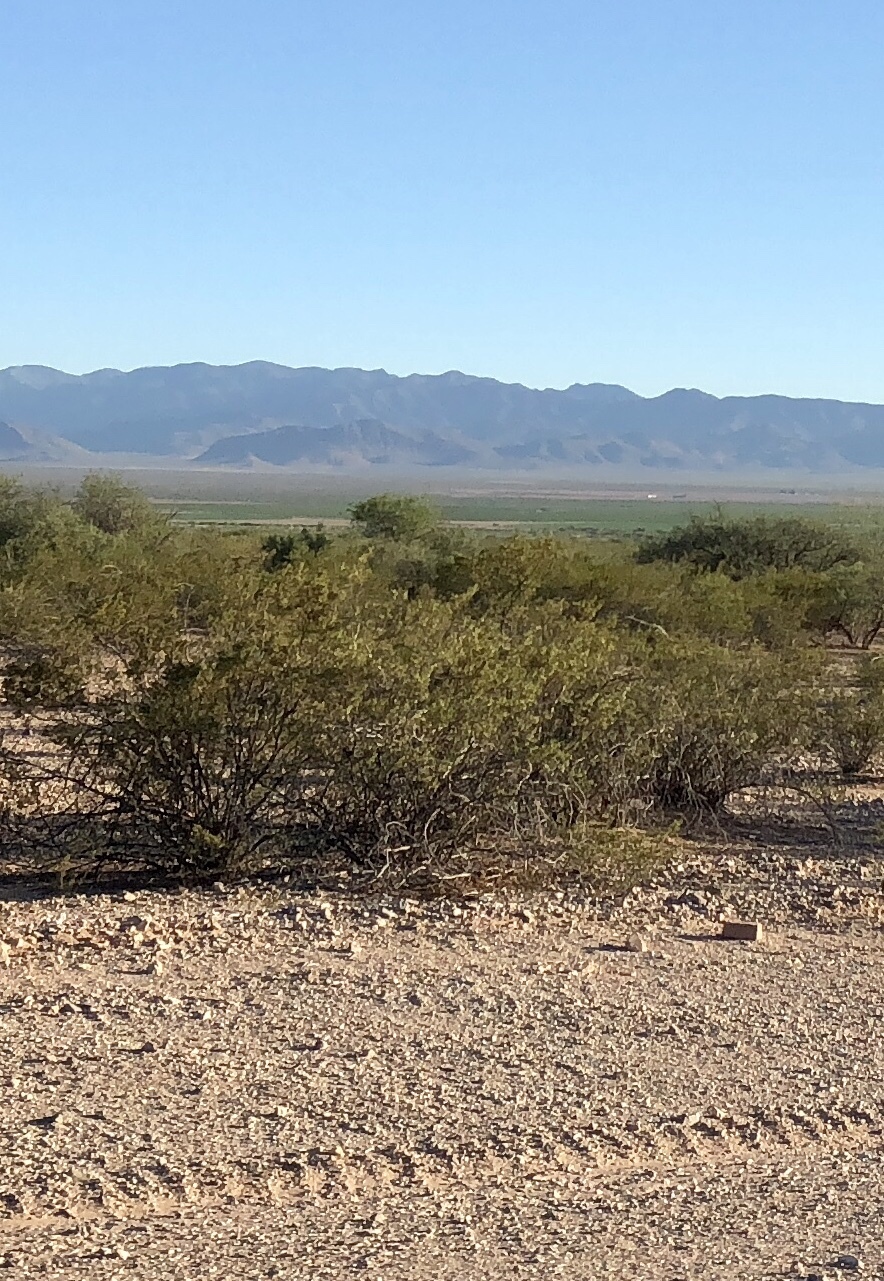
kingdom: Plantae
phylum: Tracheophyta
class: Magnoliopsida
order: Zygophyllales
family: Zygophyllaceae
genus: Larrea
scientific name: Larrea tridentata
